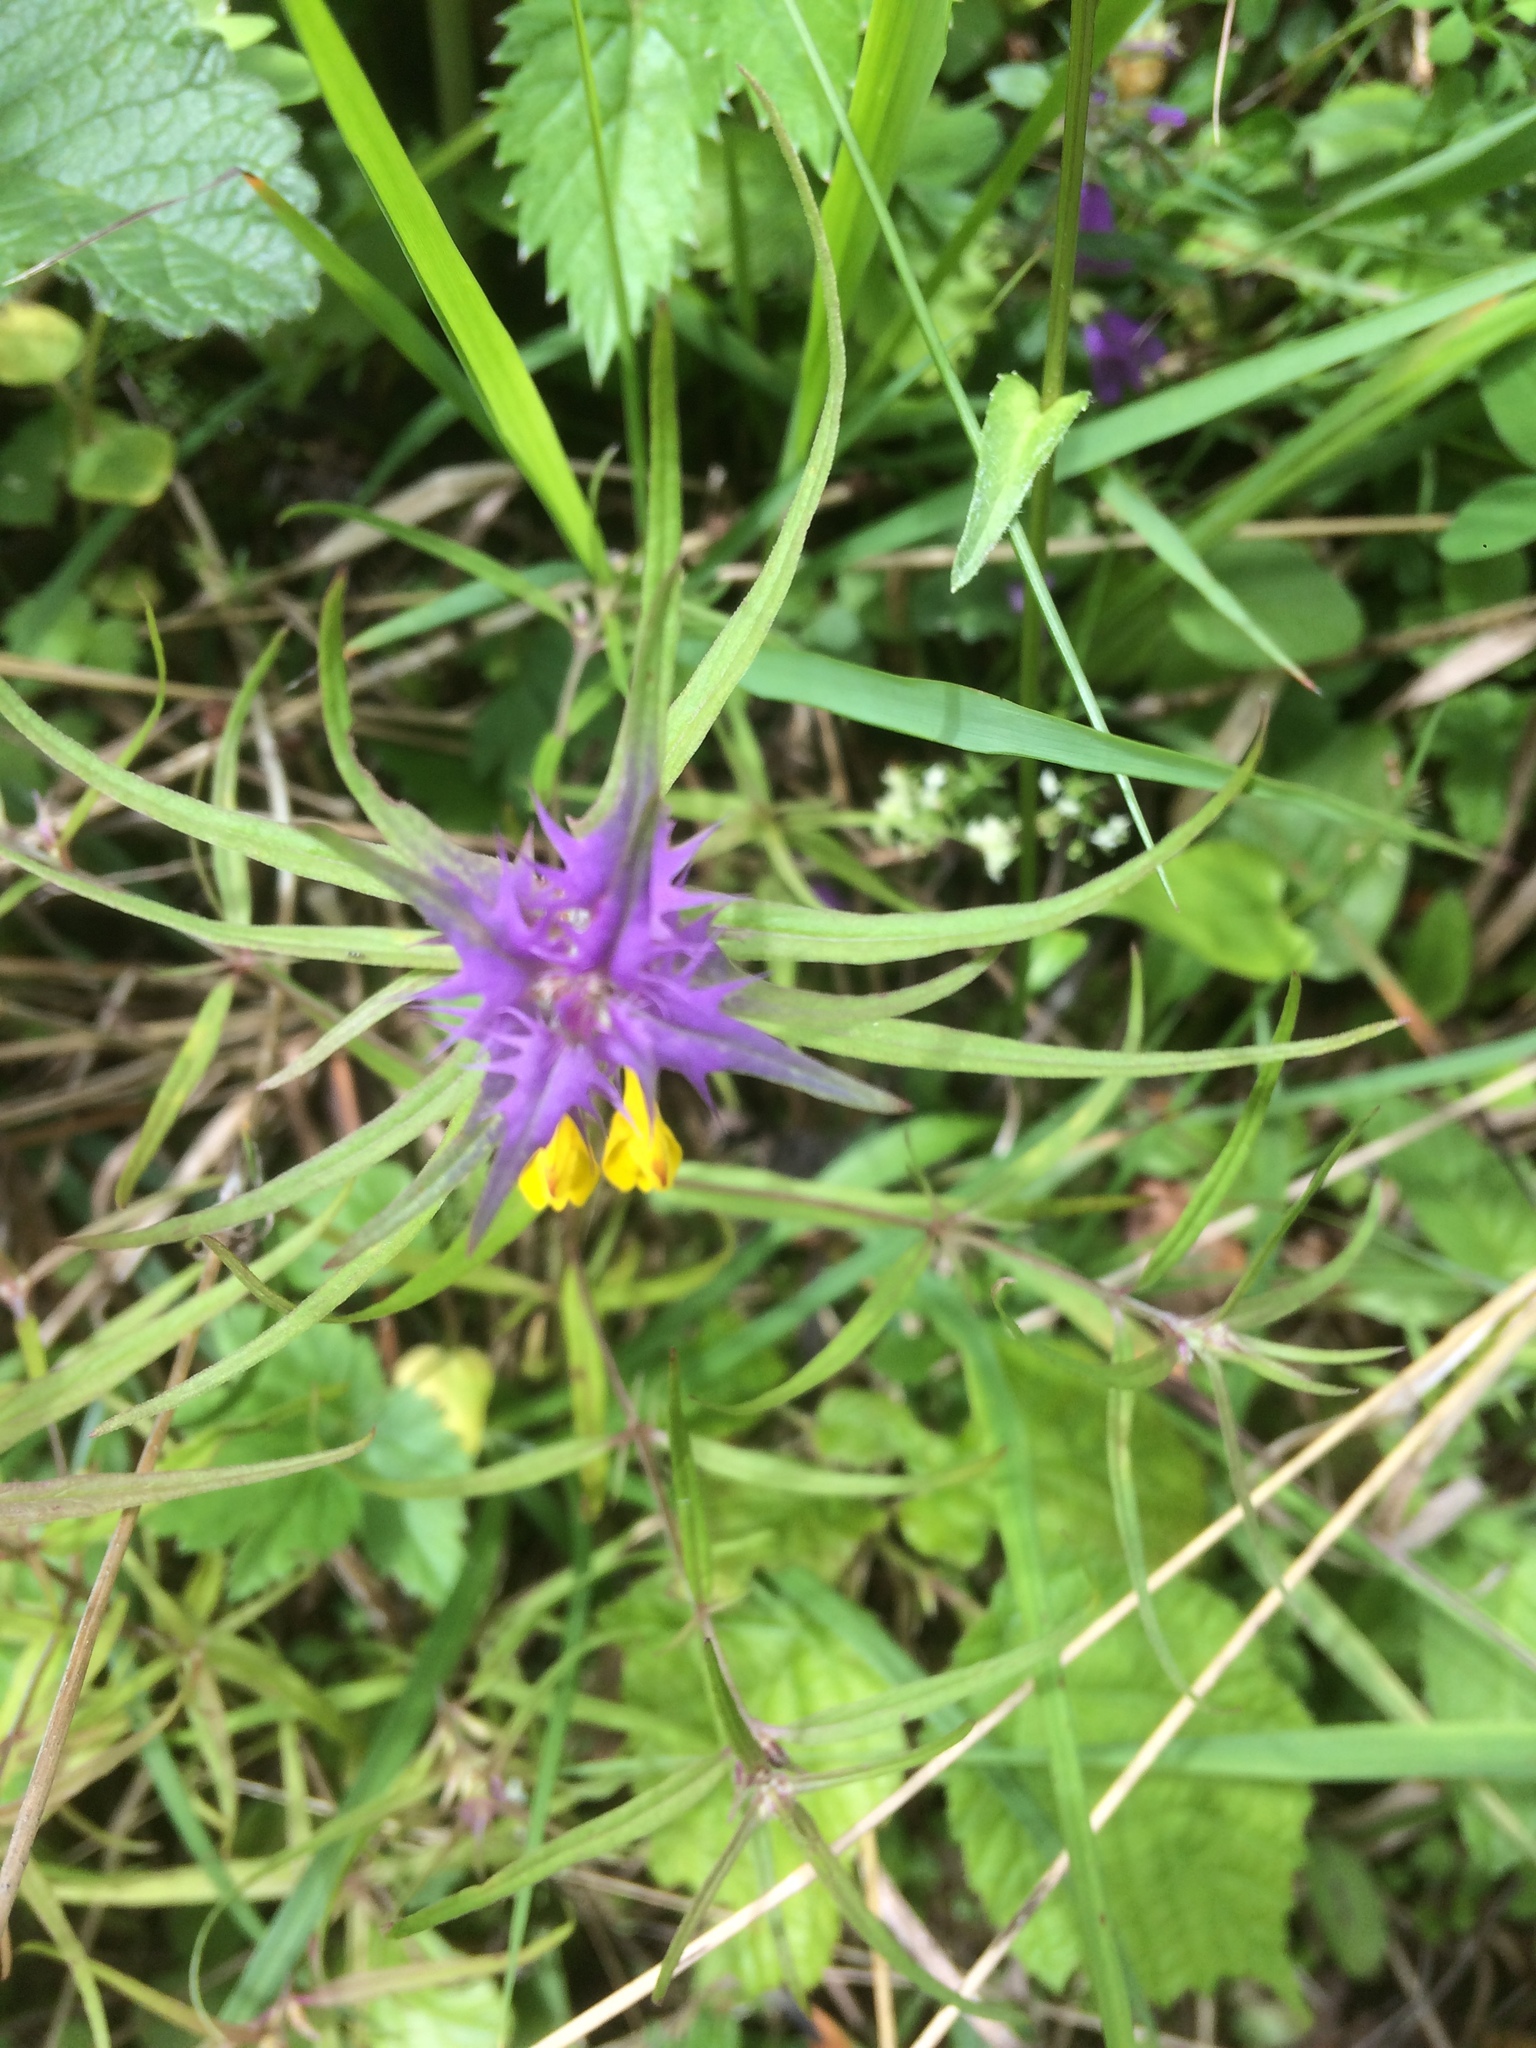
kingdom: Plantae
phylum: Tracheophyta
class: Magnoliopsida
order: Lamiales
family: Orobanchaceae
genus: Melampyrum
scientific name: Melampyrum nemorosum
